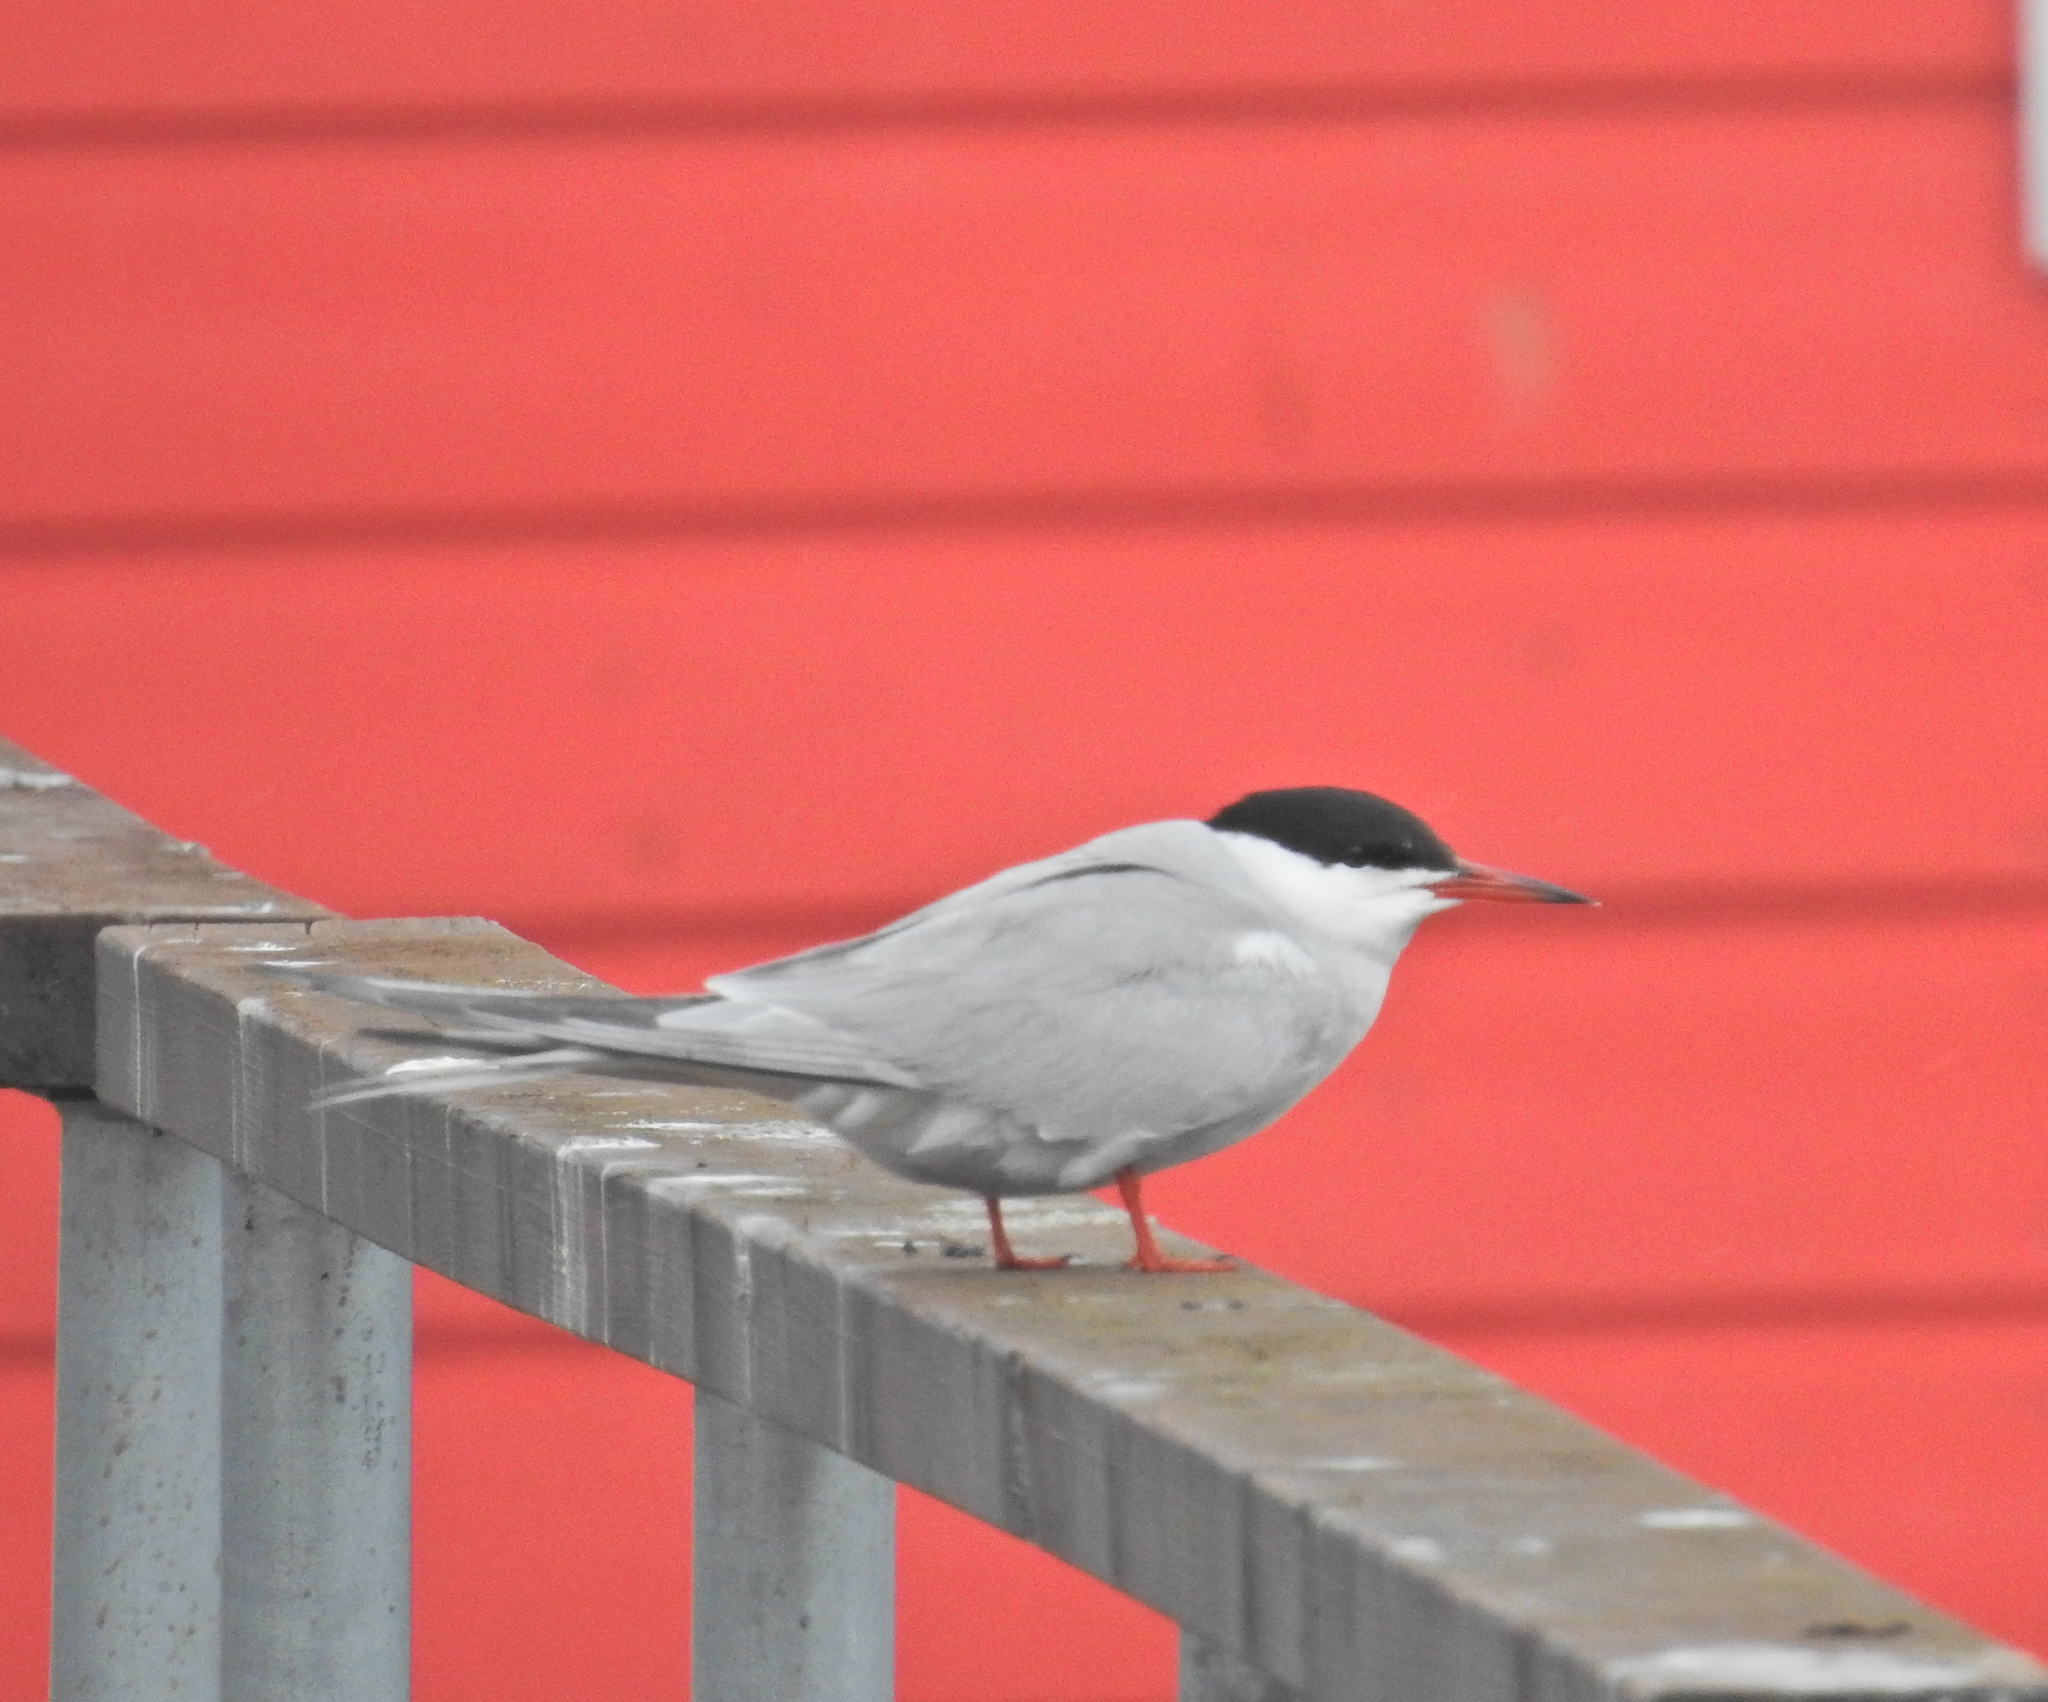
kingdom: Animalia
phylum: Chordata
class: Aves
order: Charadriiformes
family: Laridae
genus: Sterna
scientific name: Sterna hirundo
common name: Common tern
